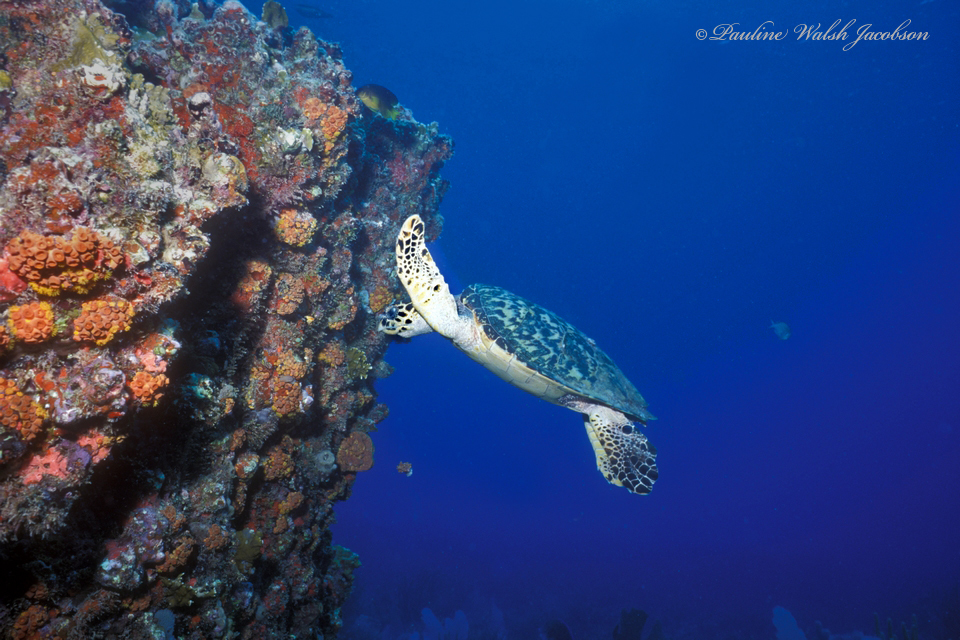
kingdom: Animalia
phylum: Chordata
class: Testudines
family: Cheloniidae
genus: Eretmochelys
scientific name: Eretmochelys imbricata
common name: Hawksbill turtle
